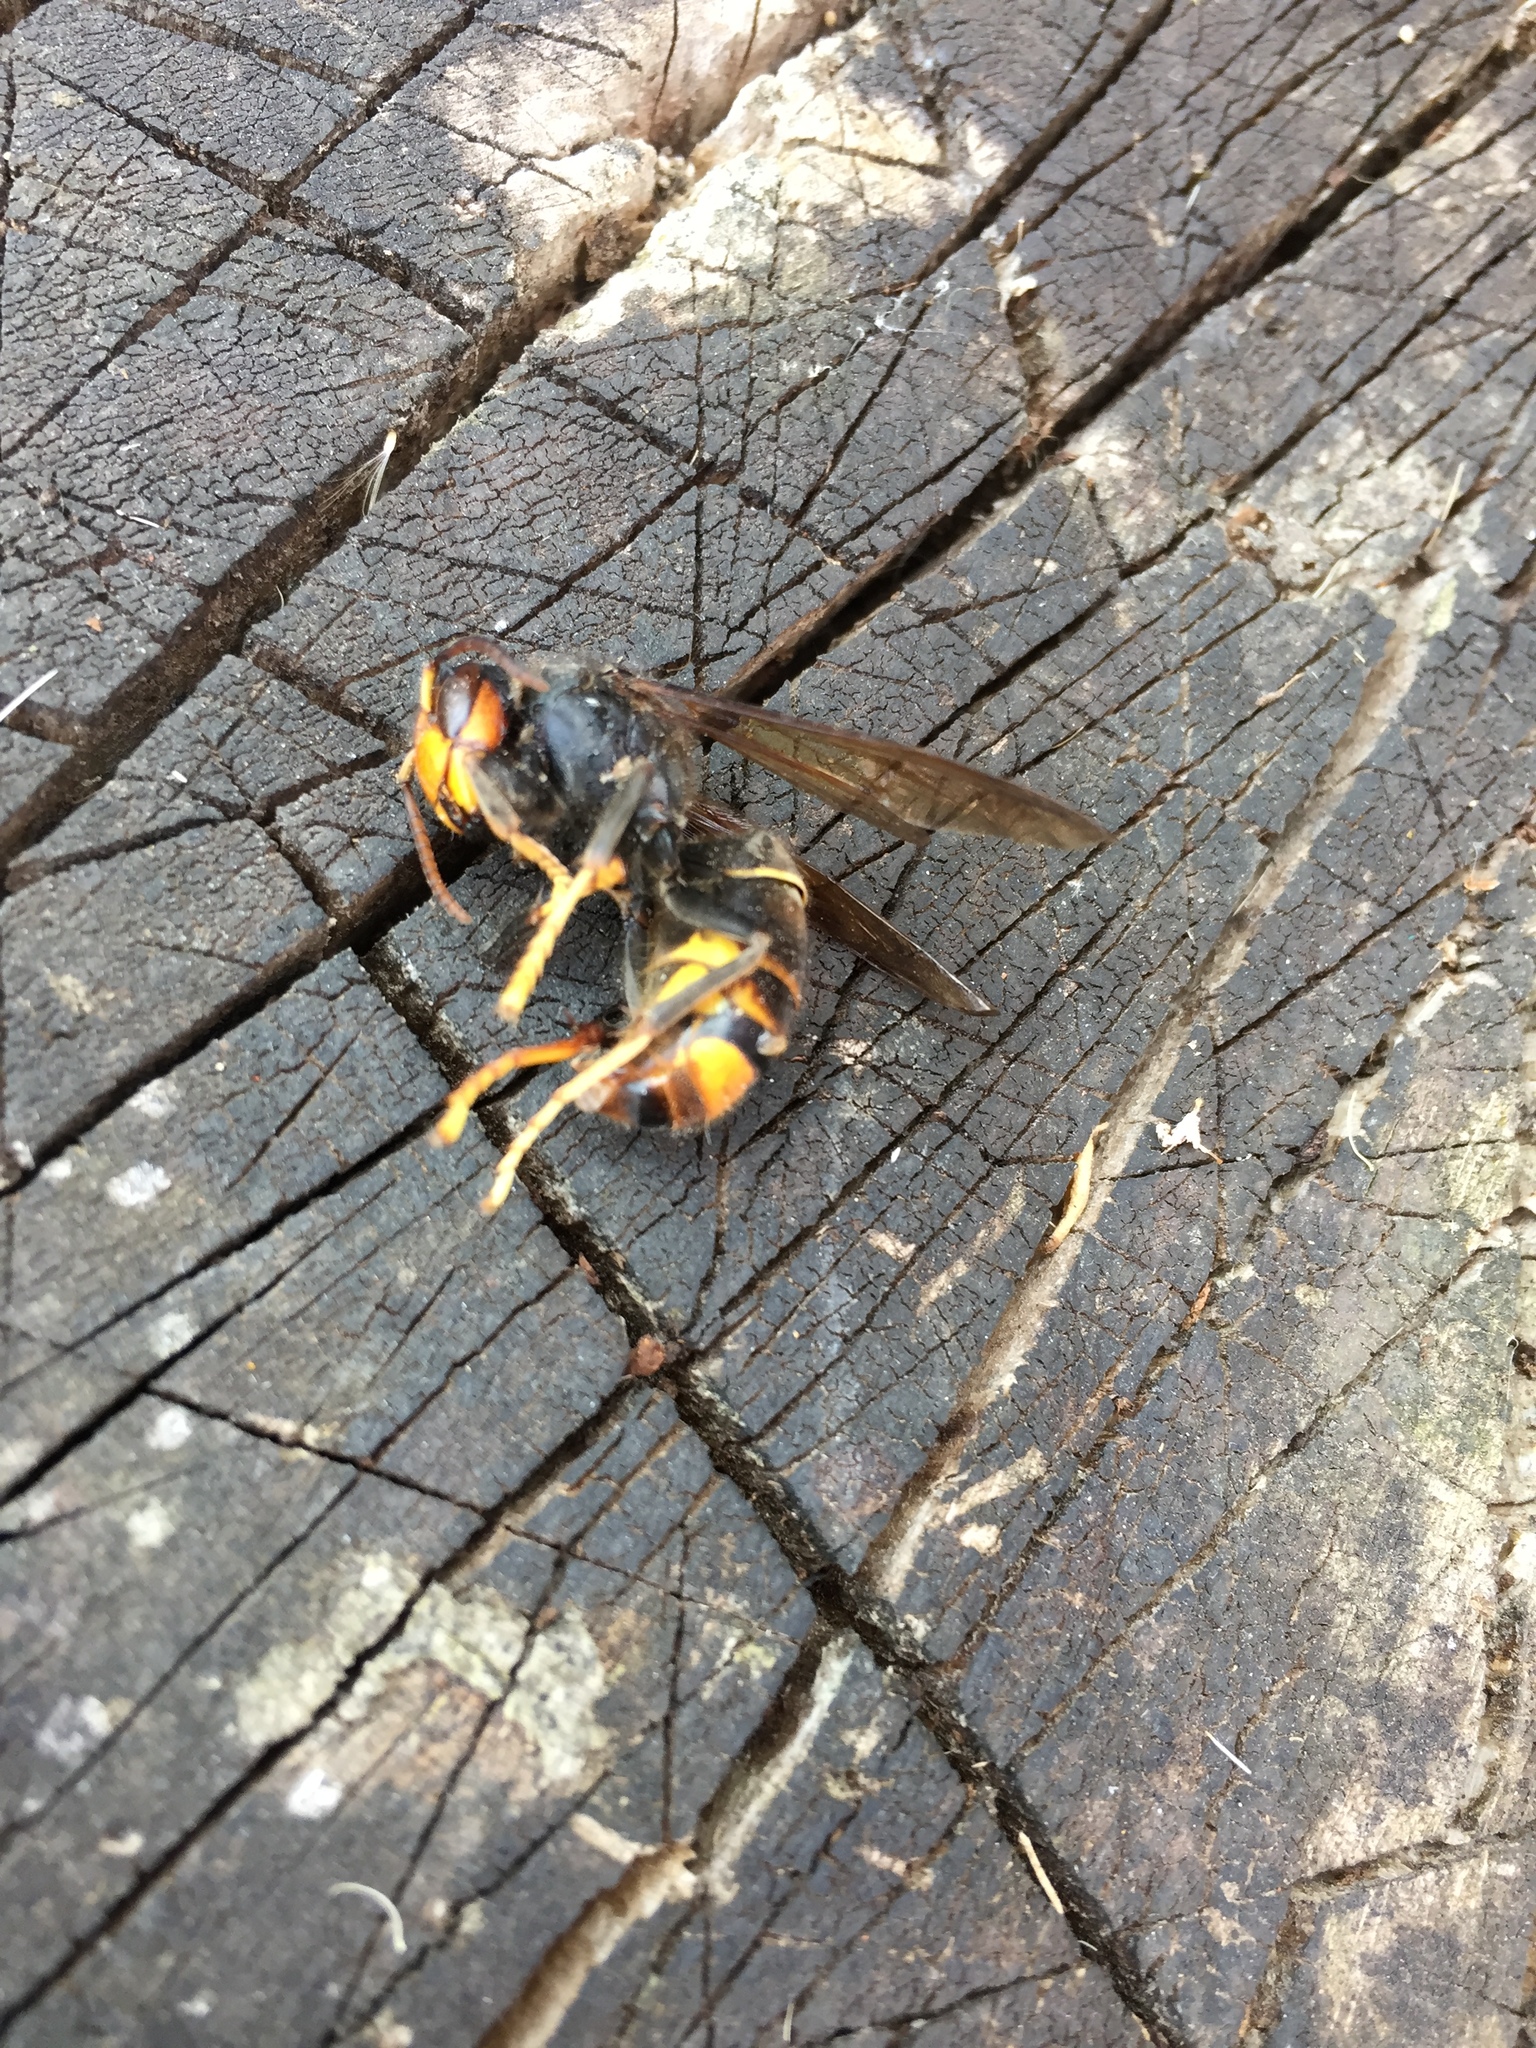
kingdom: Animalia
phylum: Arthropoda
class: Insecta
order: Hymenoptera
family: Vespidae
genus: Vespa
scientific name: Vespa velutina
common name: Asian hornet
